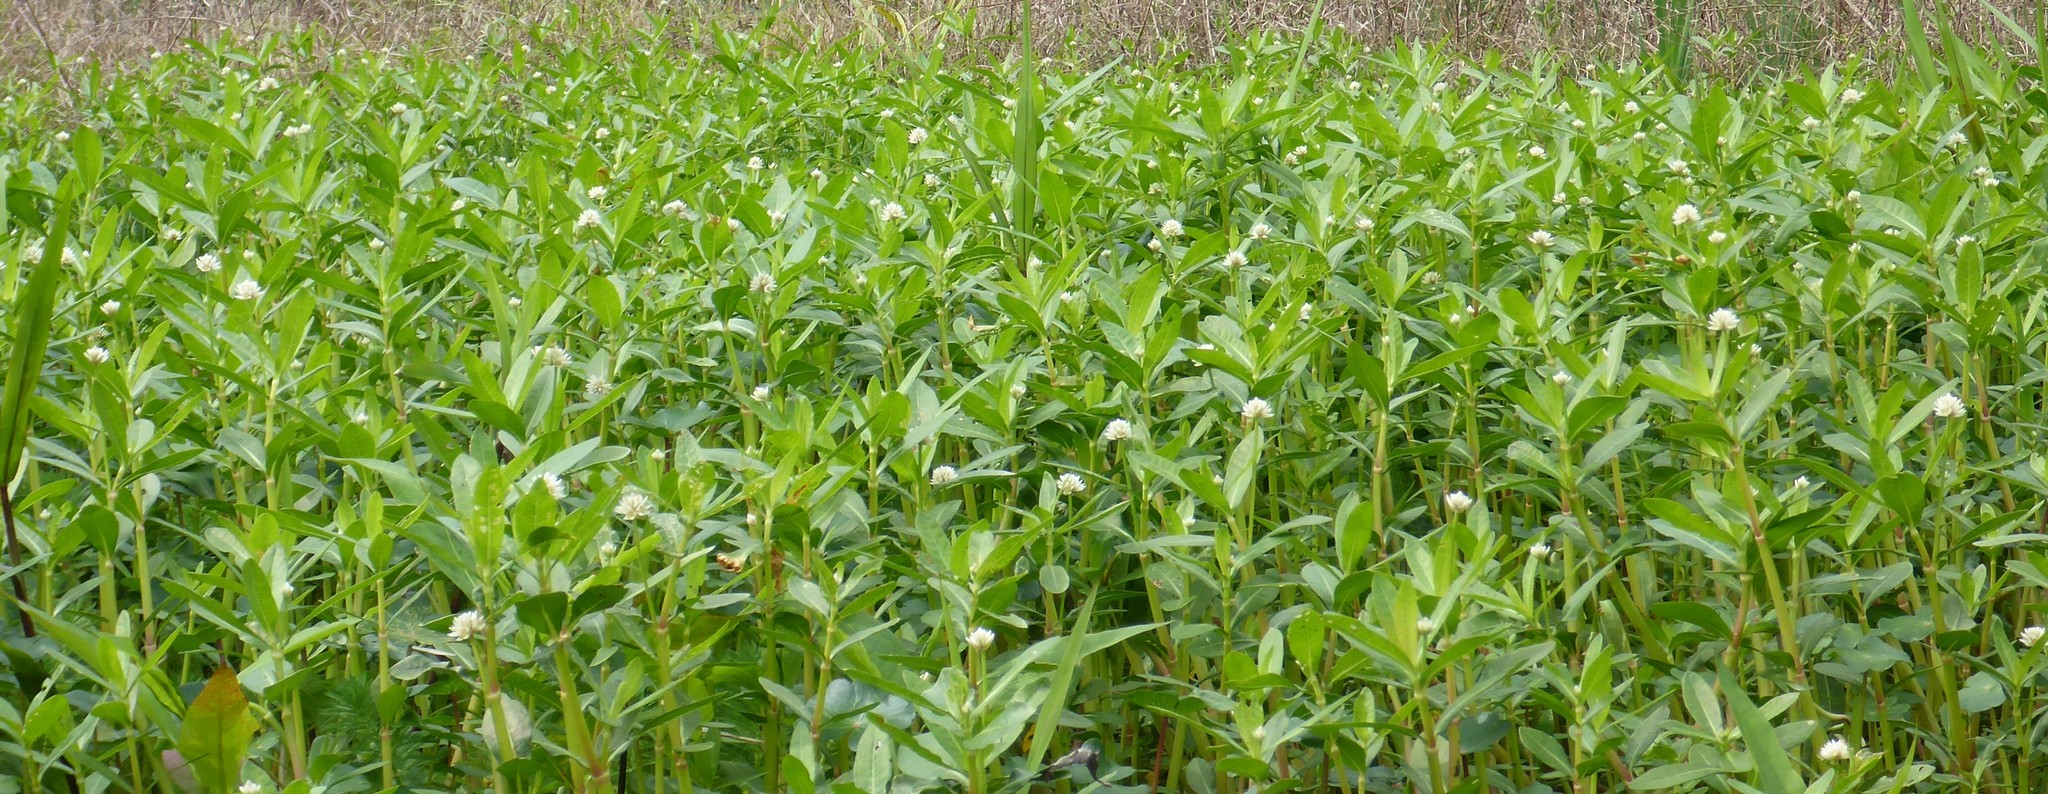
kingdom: Plantae
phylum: Tracheophyta
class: Magnoliopsida
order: Caryophyllales
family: Amaranthaceae
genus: Alternanthera
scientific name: Alternanthera philoxeroides
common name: Alligatorweed
